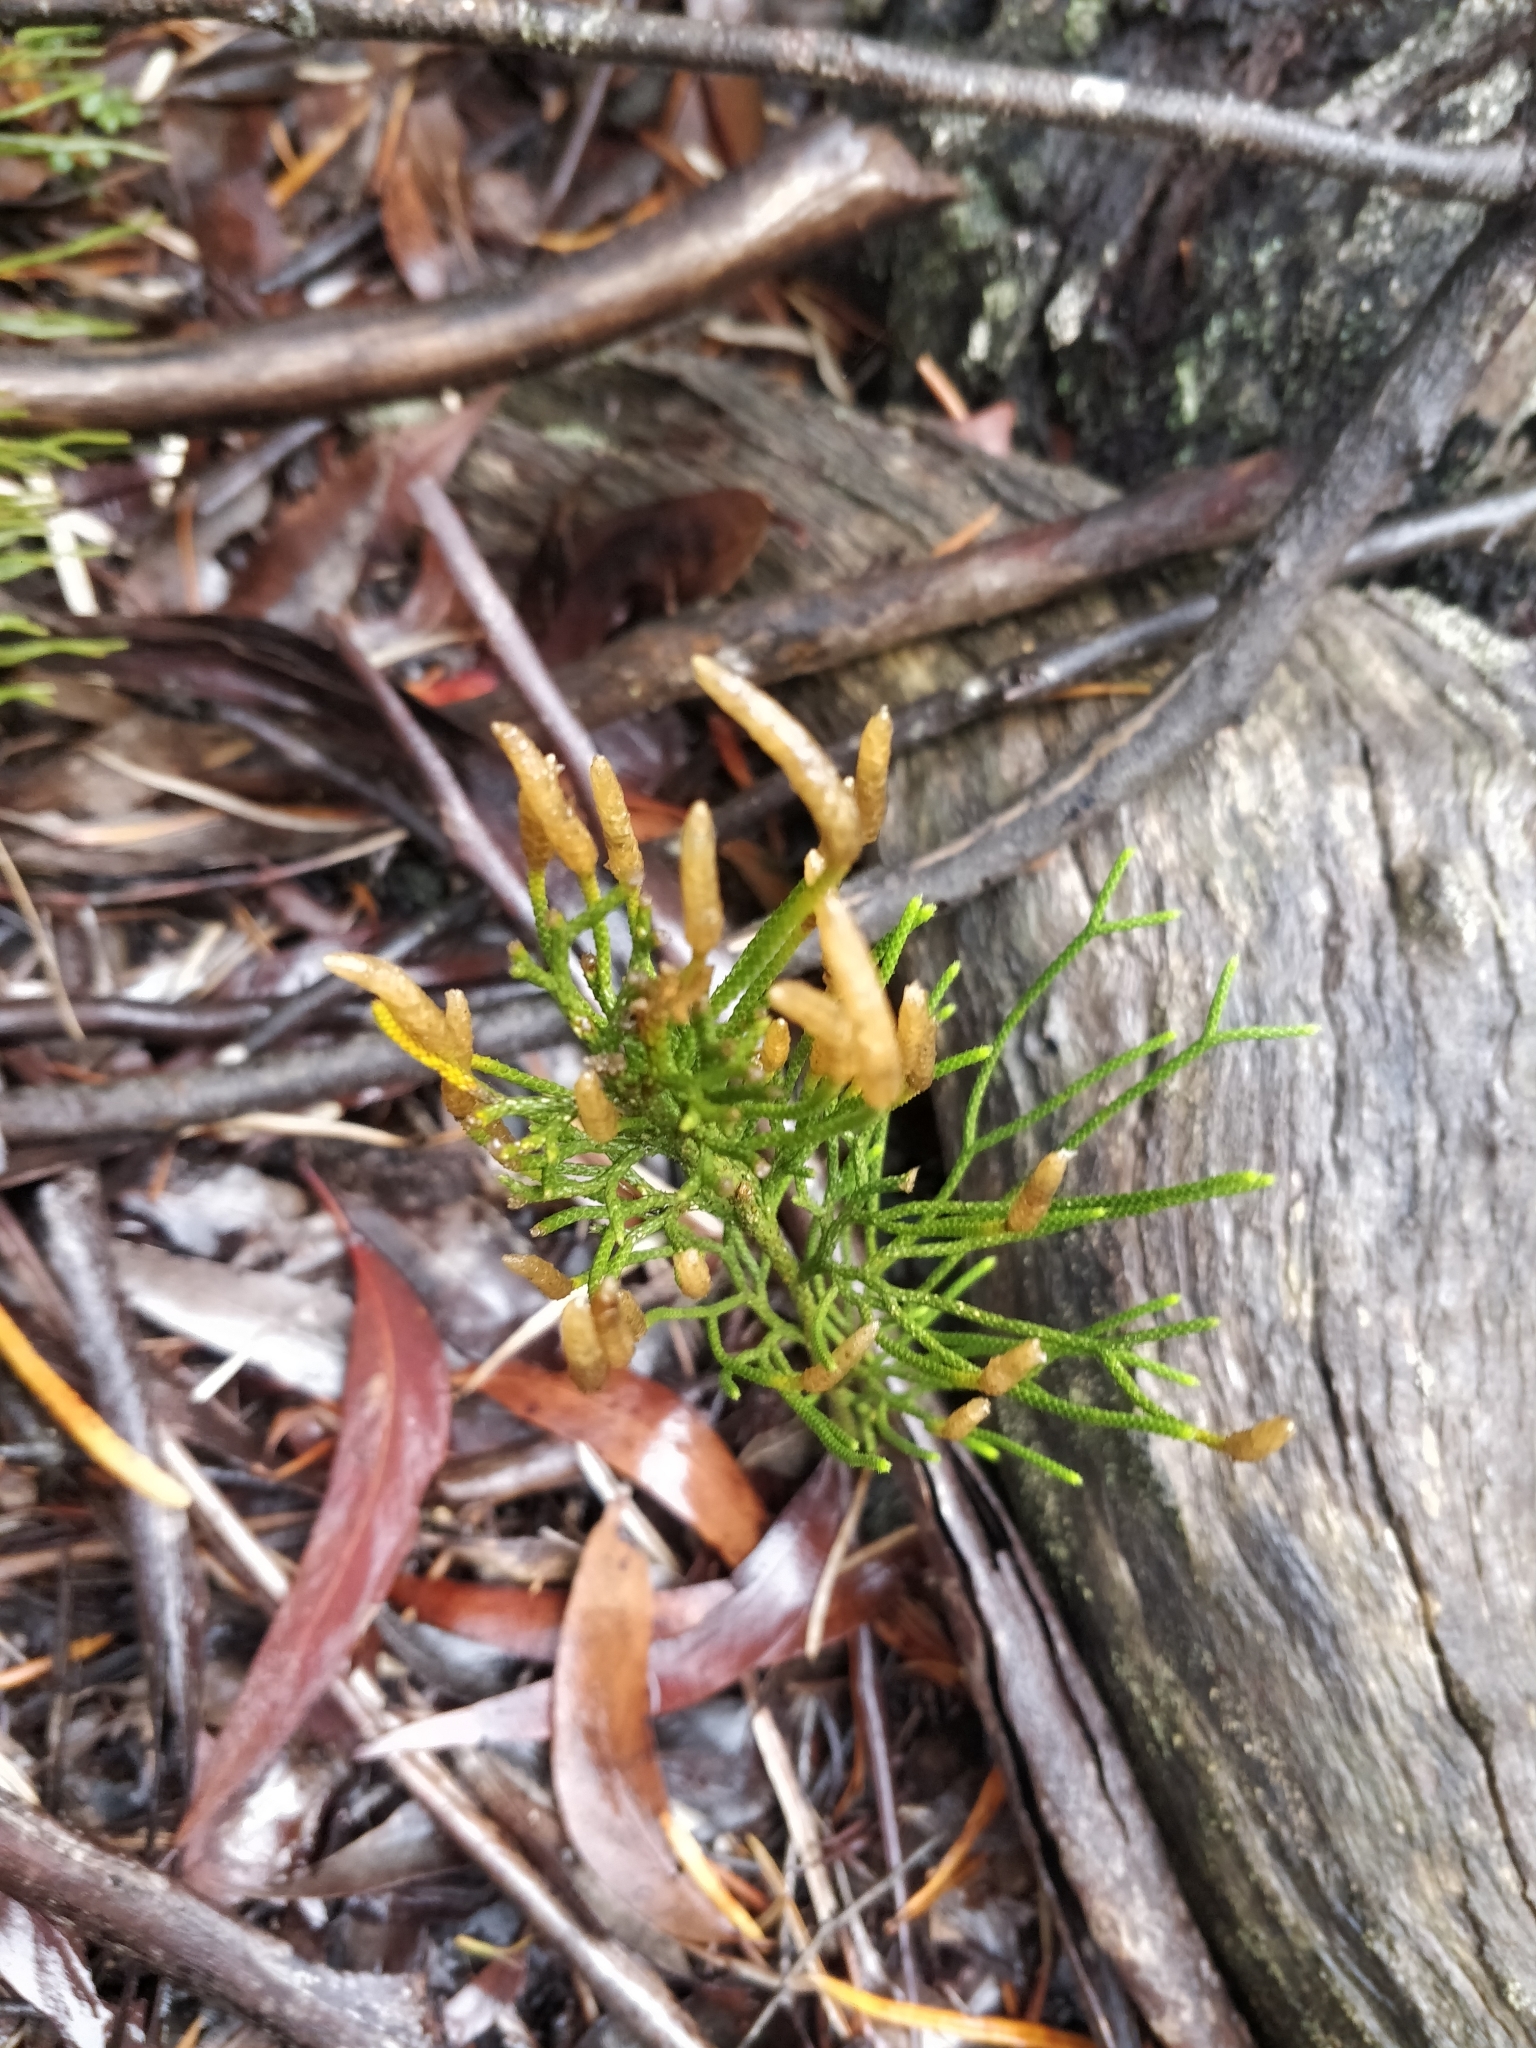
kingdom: Plantae
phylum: Tracheophyta
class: Lycopodiopsida
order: Lycopodiales
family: Lycopodiaceae
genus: Pseudolycopodium
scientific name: Pseudolycopodium densum
